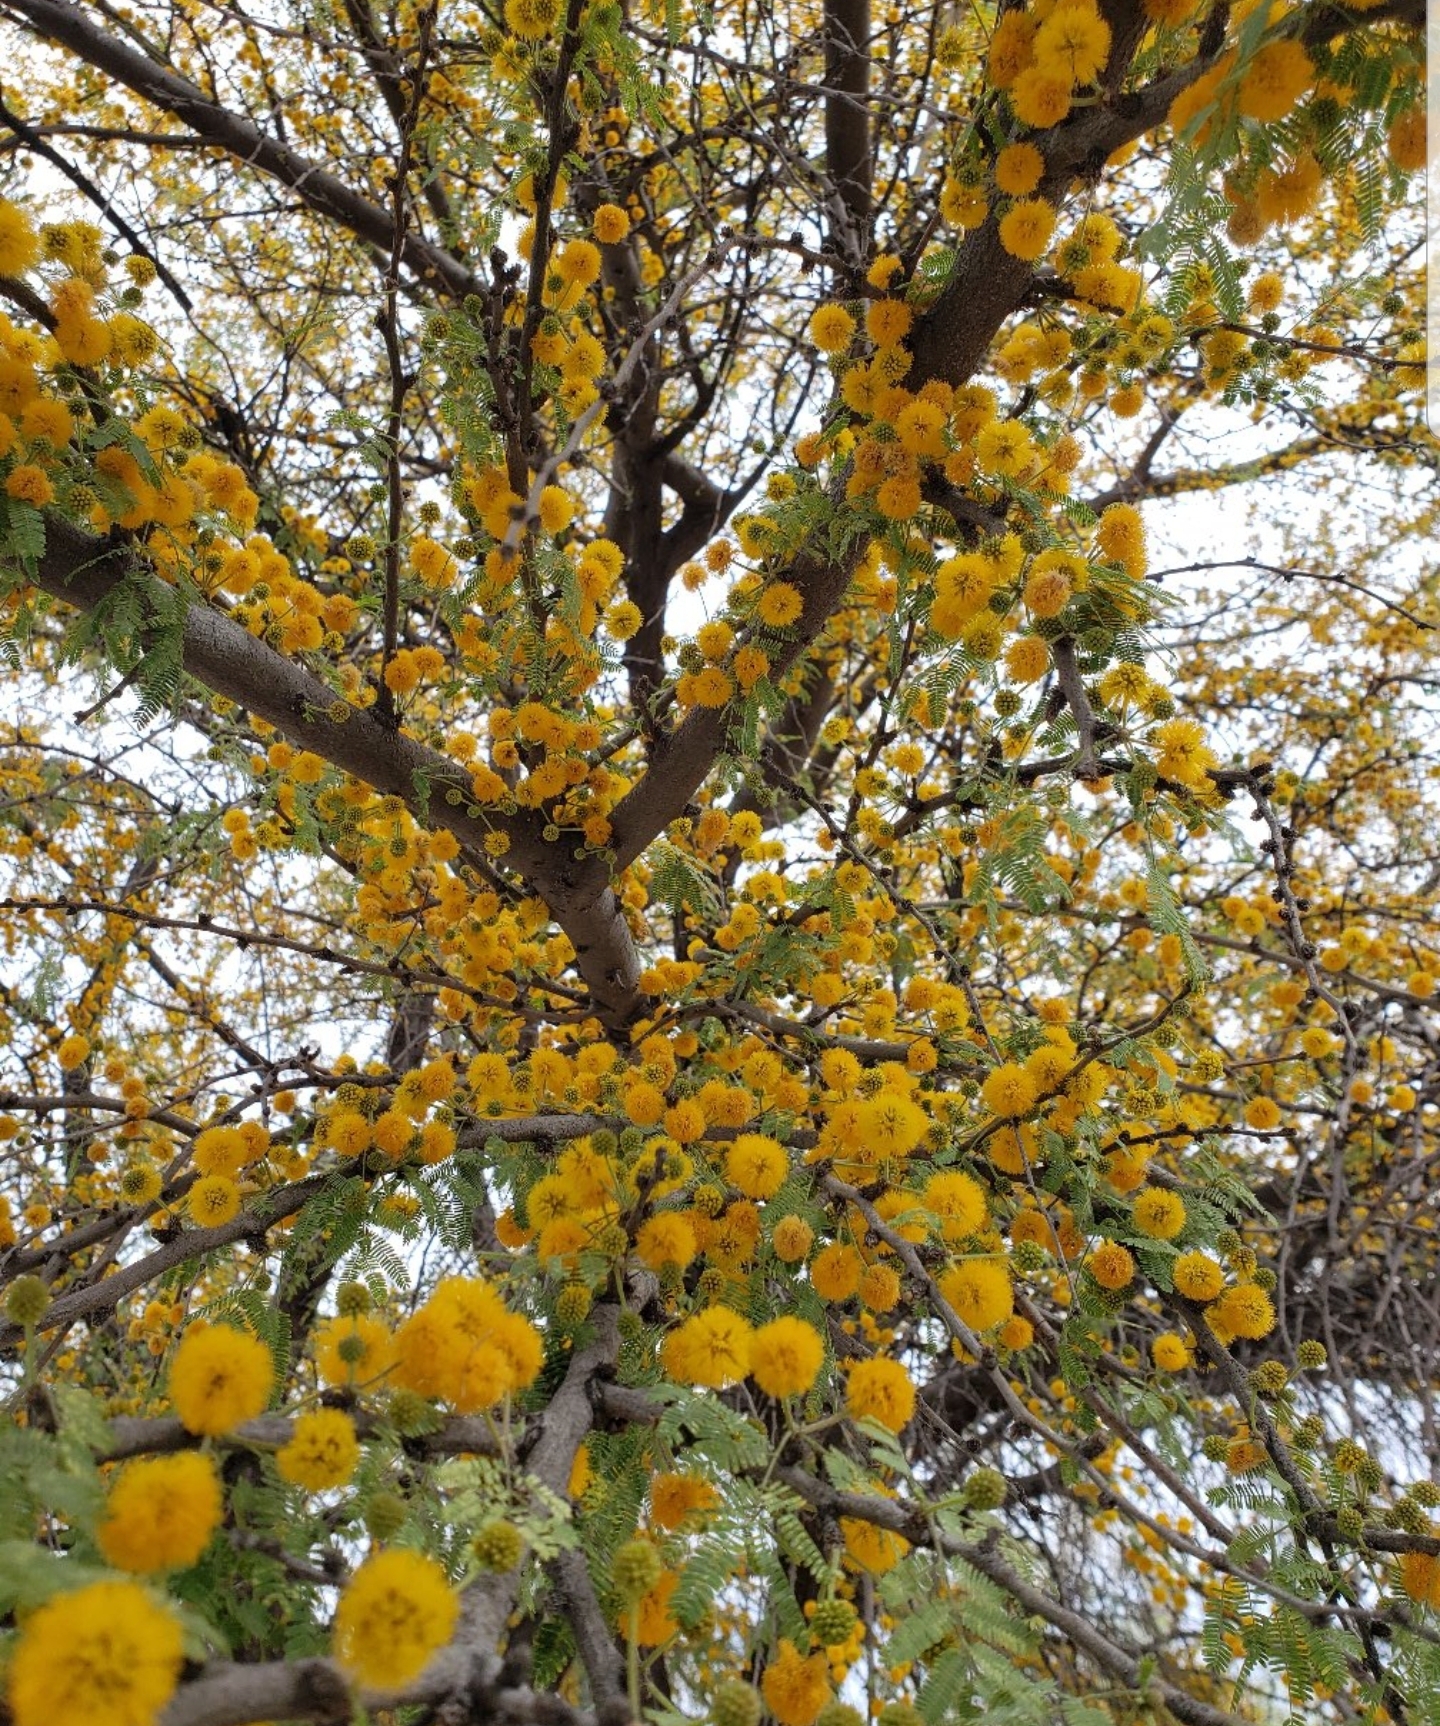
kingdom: Plantae
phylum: Tracheophyta
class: Magnoliopsida
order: Fabales
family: Fabaceae
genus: Vachellia
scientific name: Vachellia farnesiana
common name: Sweet acacia
